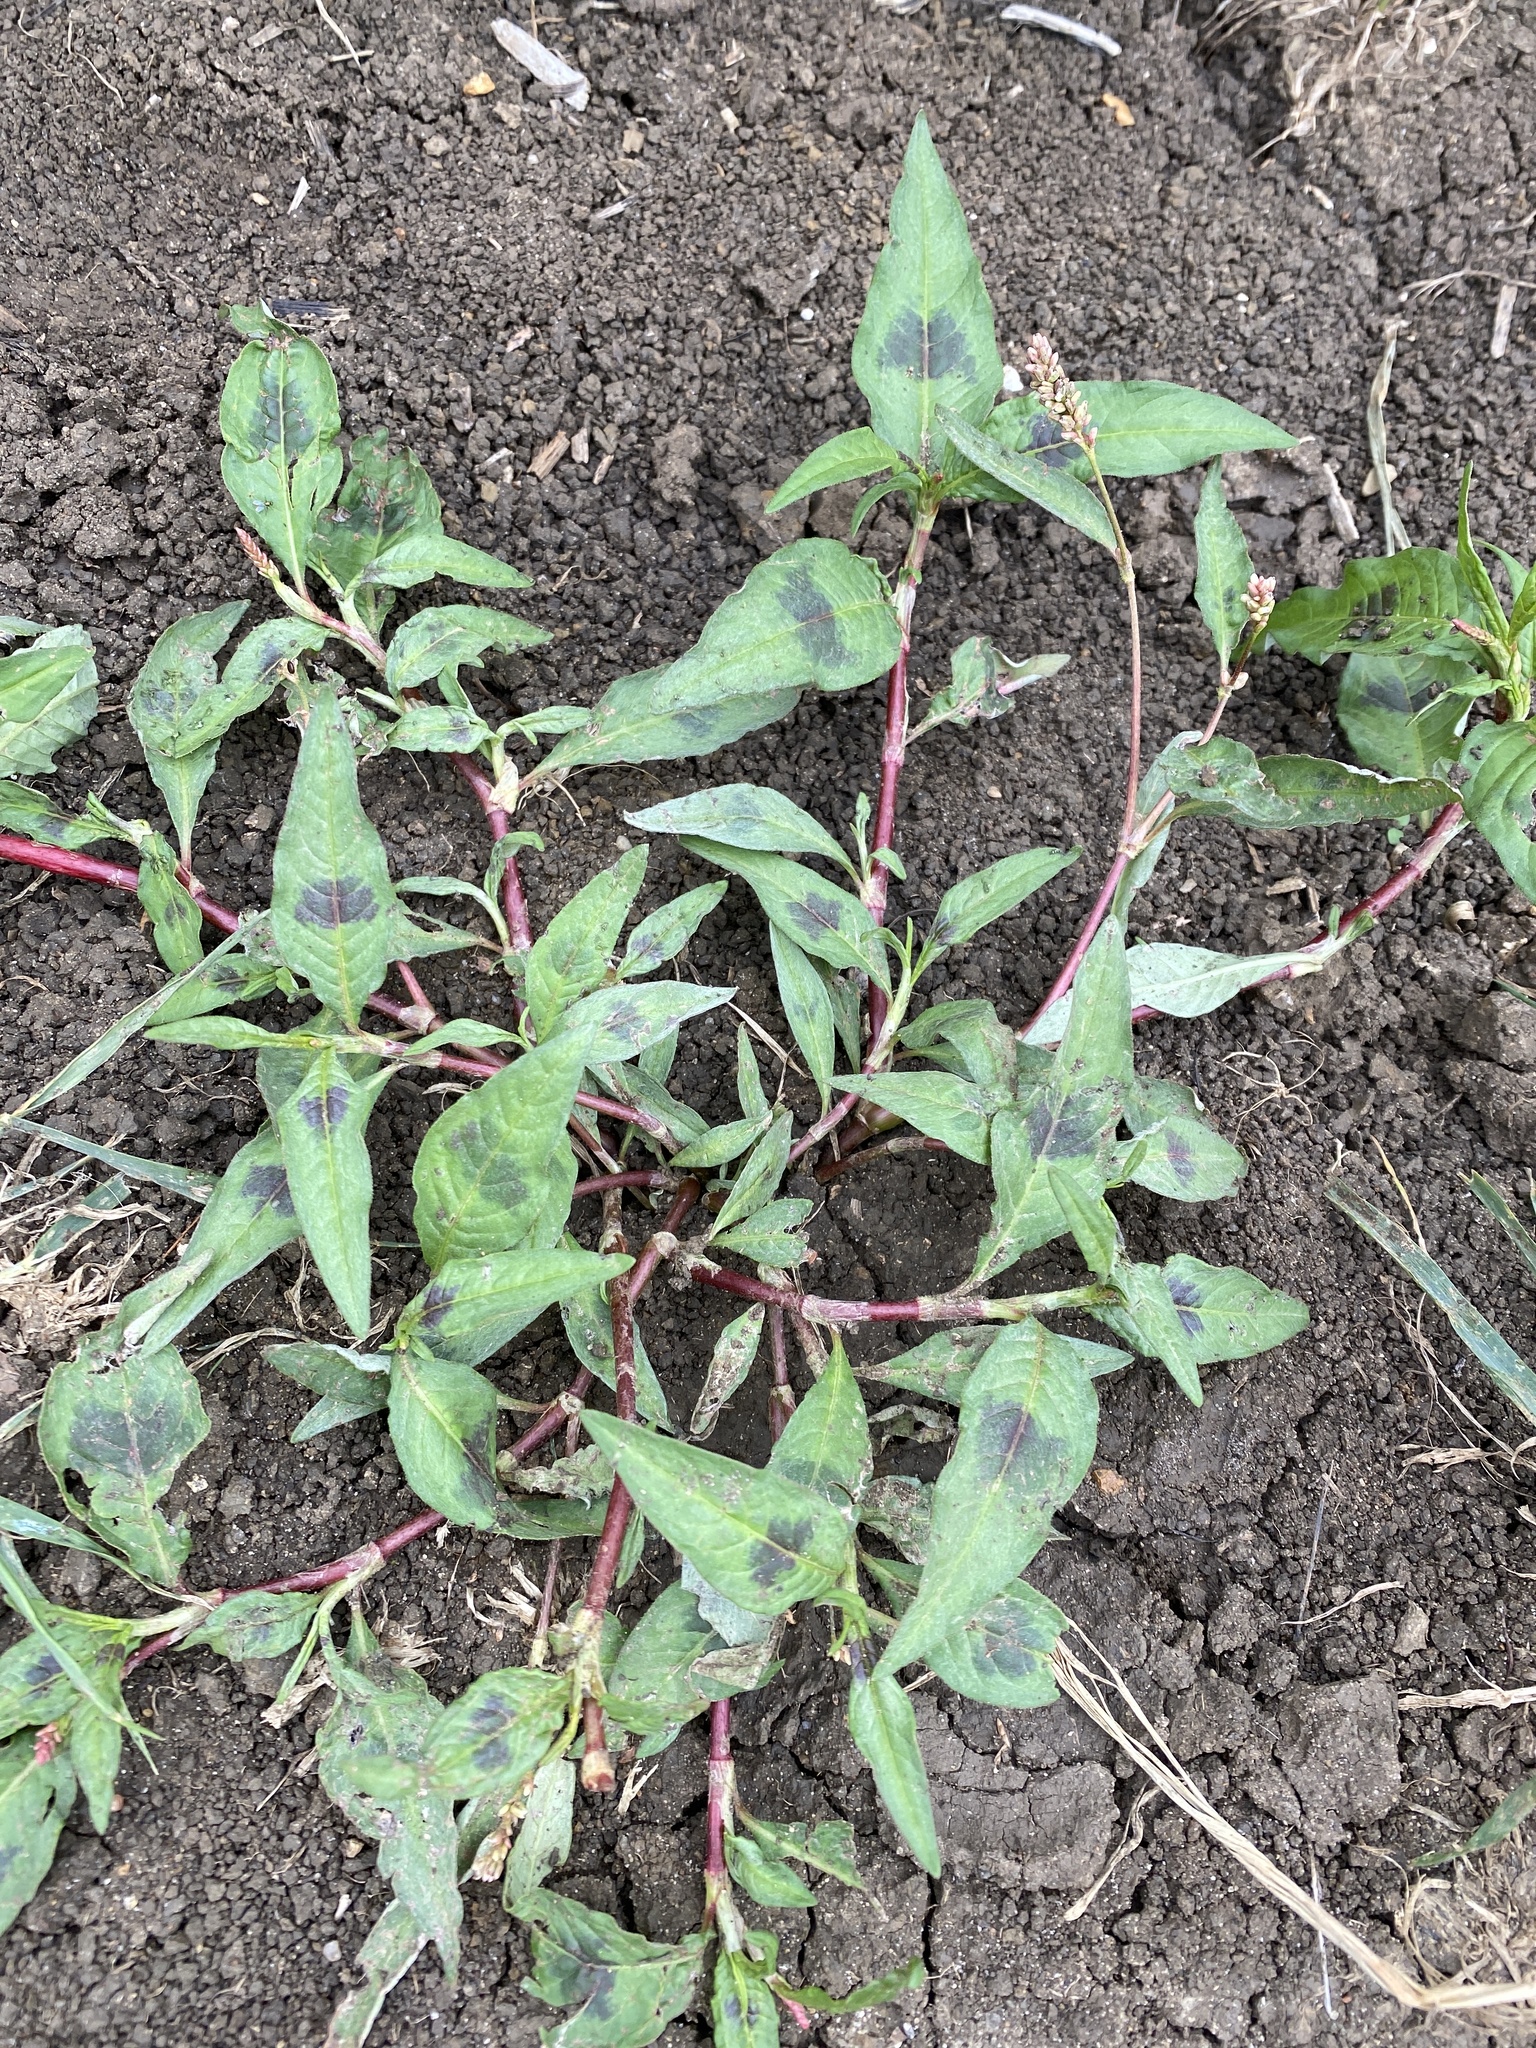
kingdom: Plantae
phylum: Tracheophyta
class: Magnoliopsida
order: Caryophyllales
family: Polygonaceae
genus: Persicaria
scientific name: Persicaria maculosa
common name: Redshank
